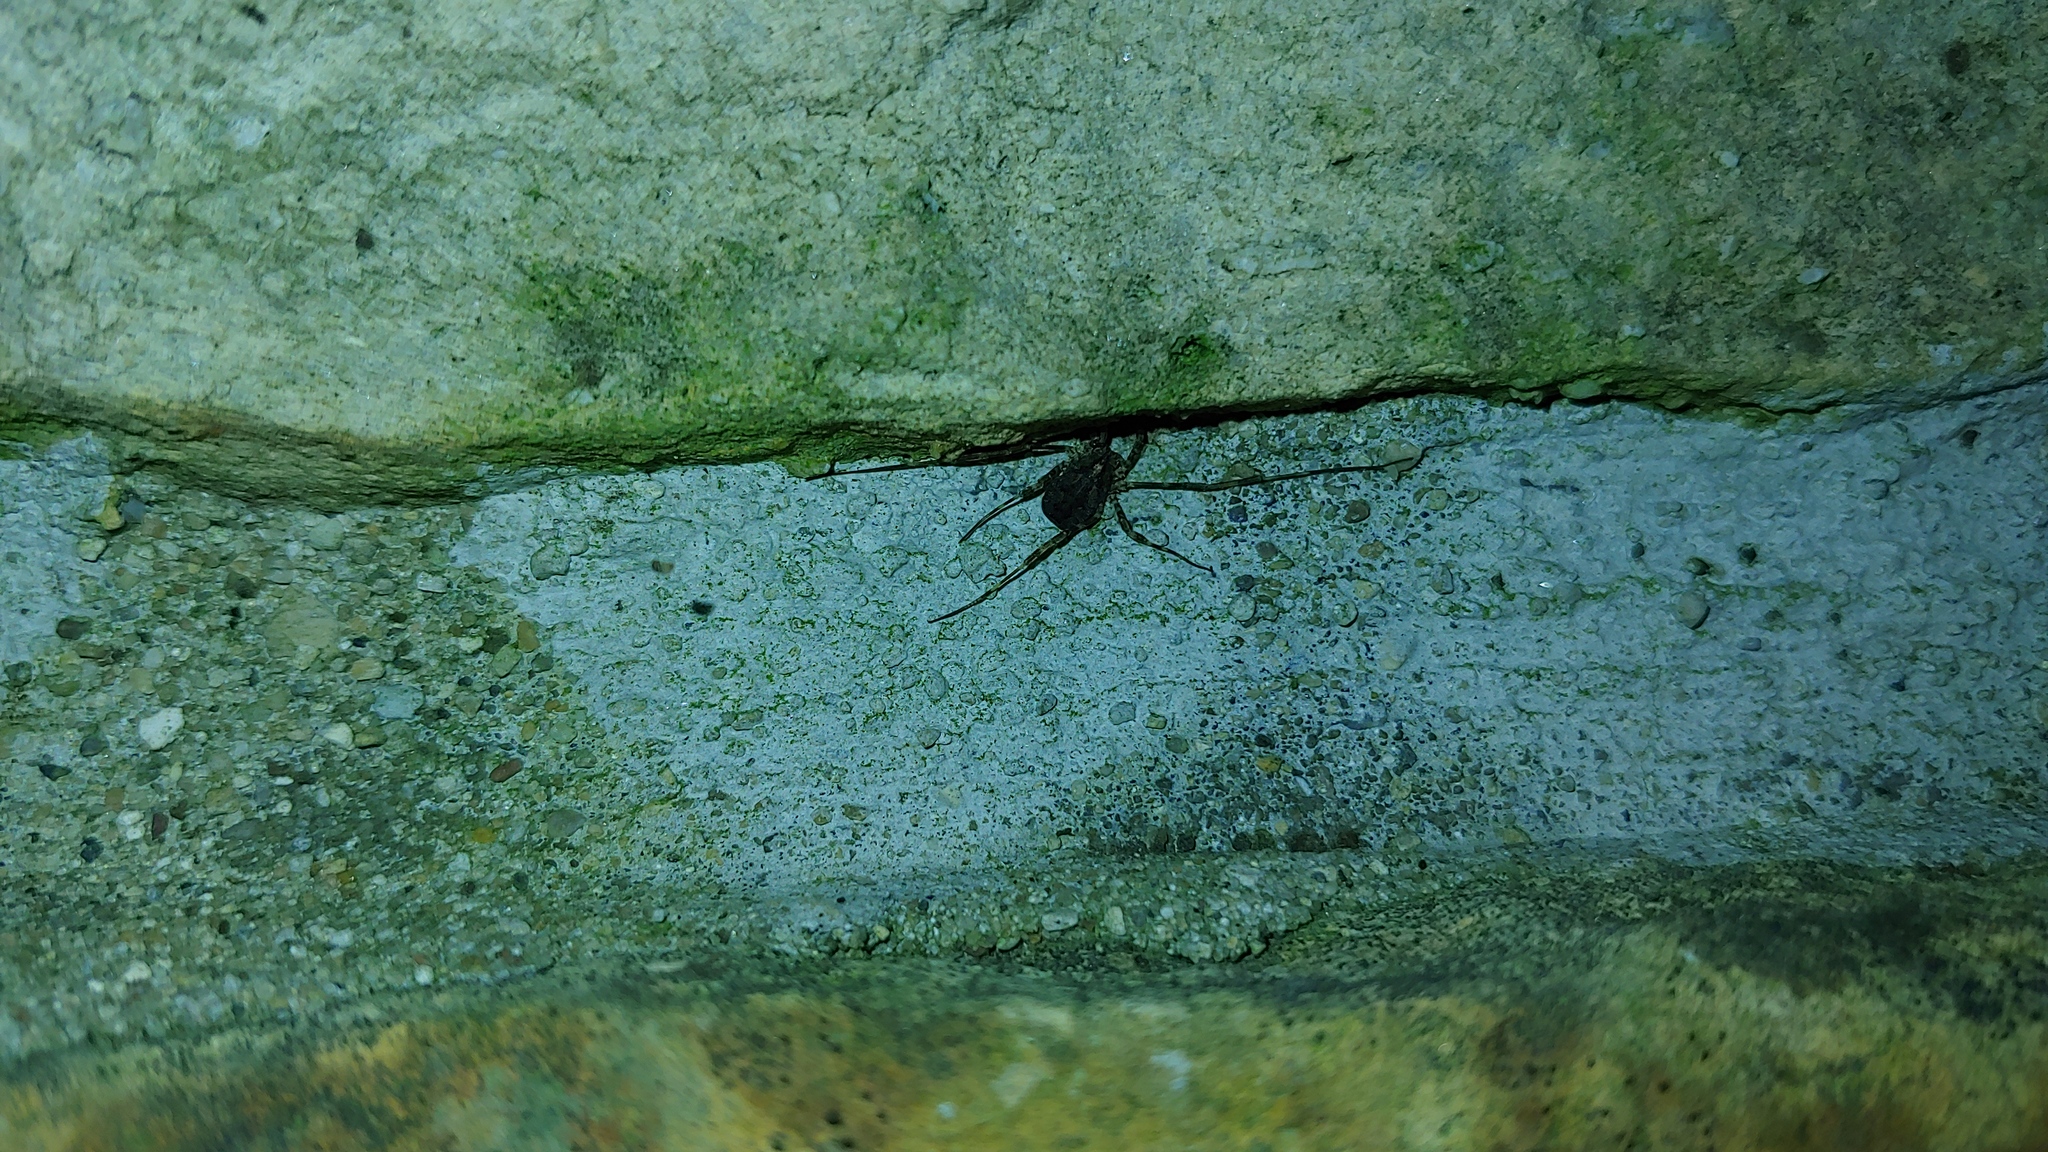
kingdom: Animalia
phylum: Arthropoda
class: Arachnida
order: Opiliones
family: Phalangiidae
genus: Odiellus
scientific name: Odiellus pictus
